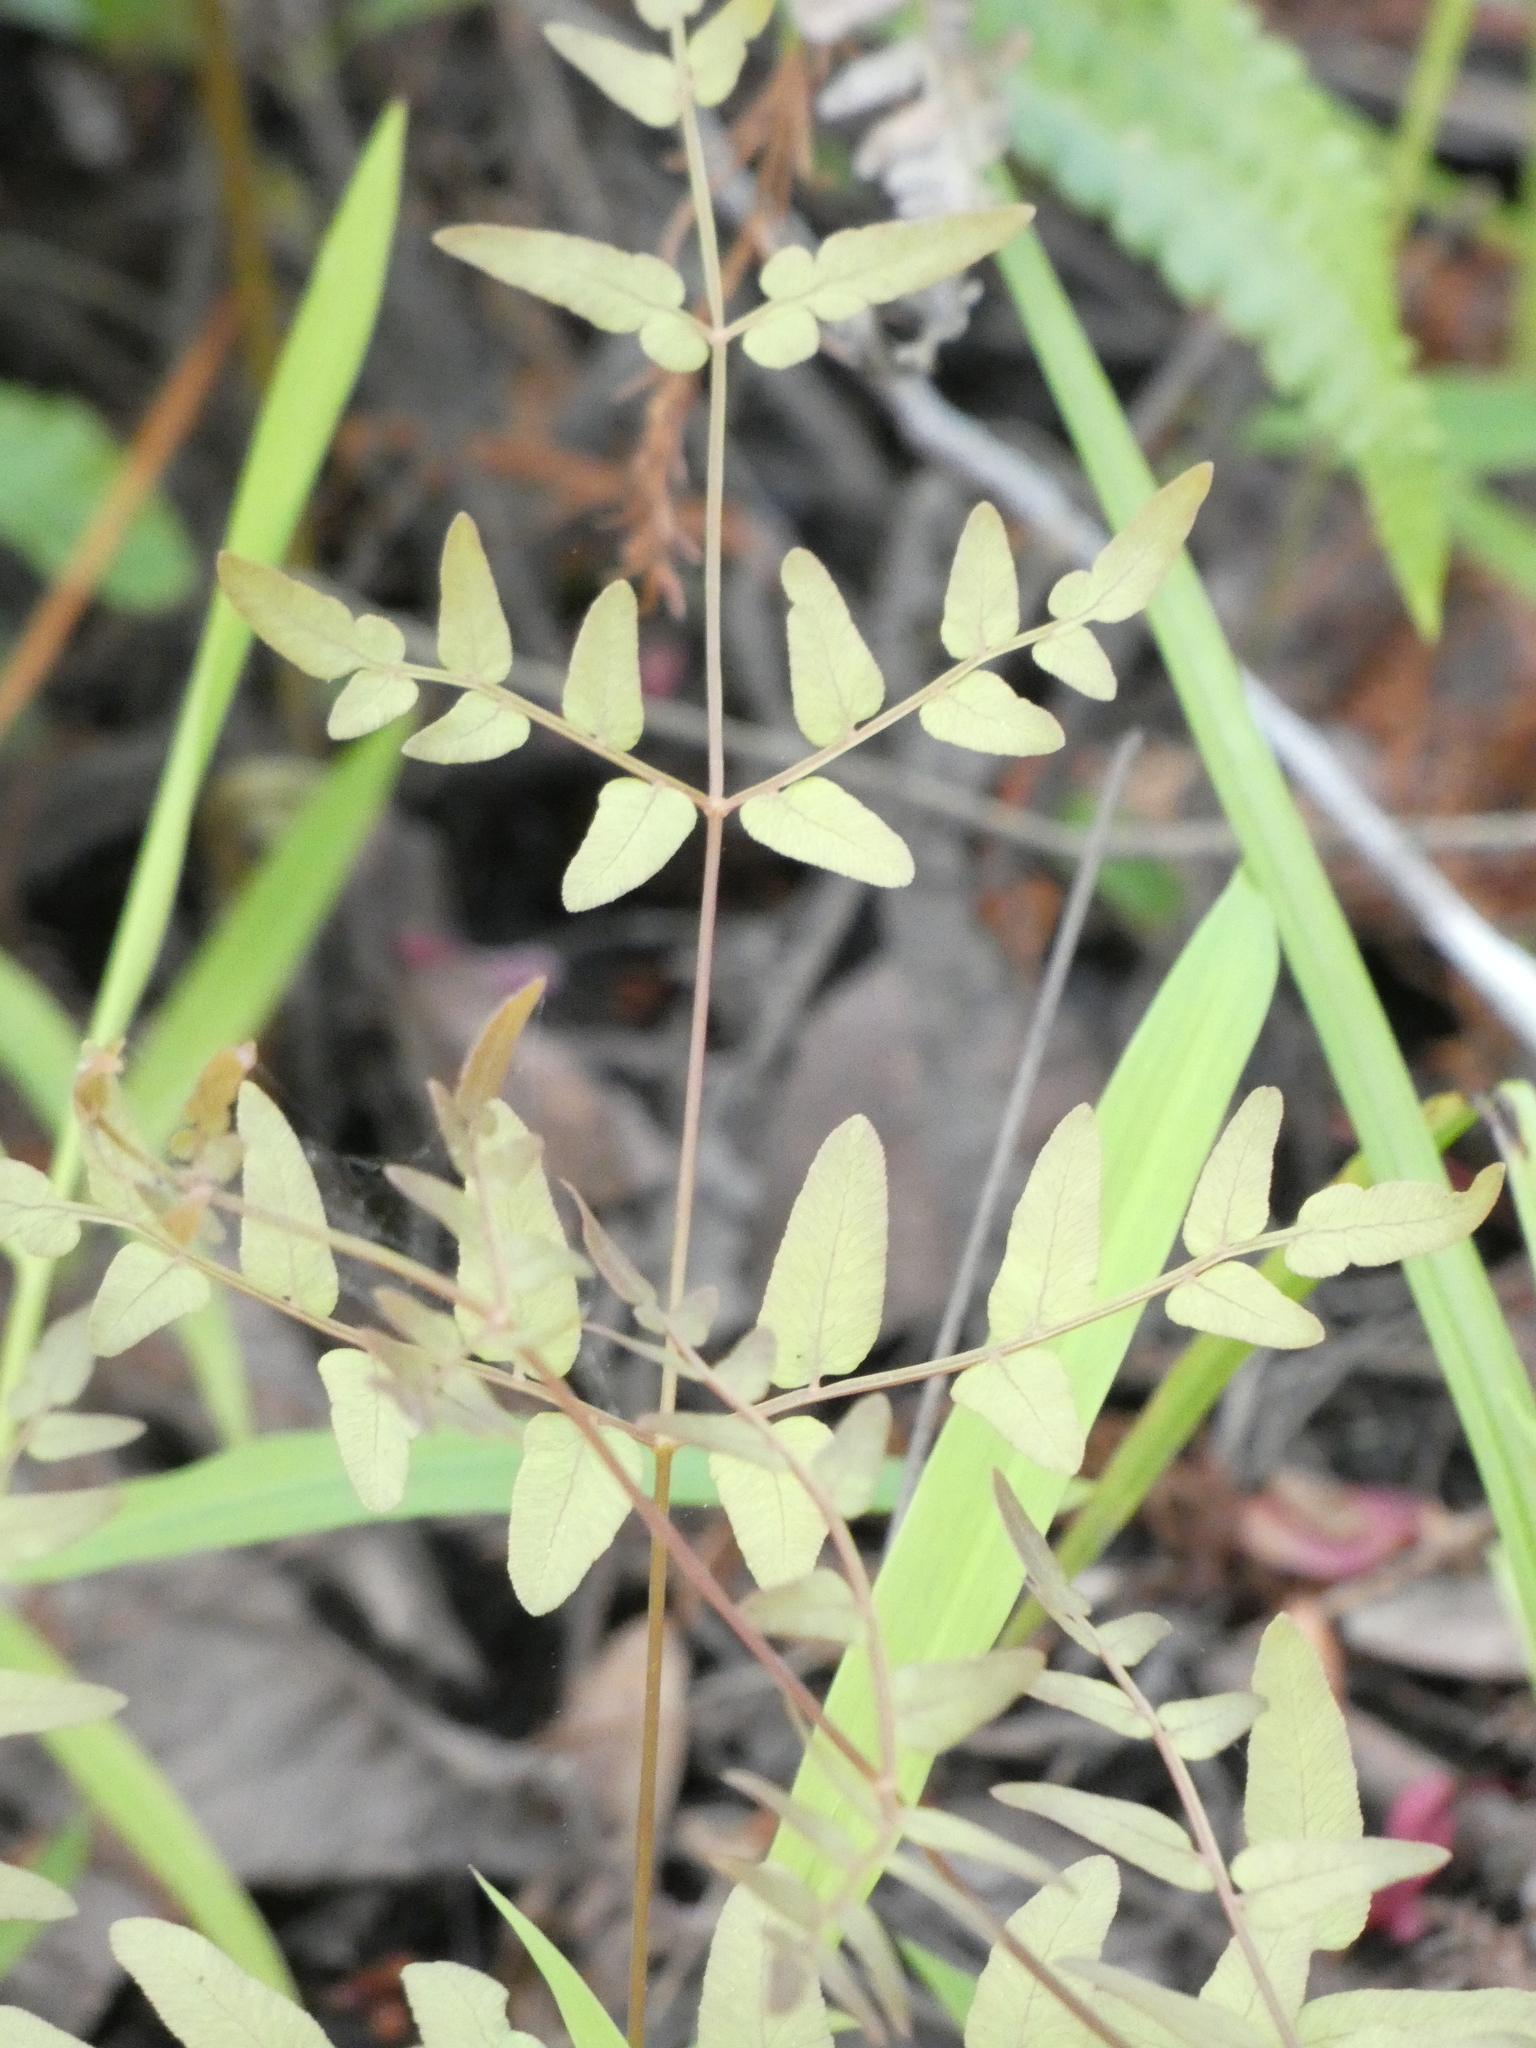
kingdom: Plantae
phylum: Tracheophyta
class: Polypodiopsida
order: Osmundales
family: Osmundaceae
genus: Osmunda
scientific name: Osmunda spectabilis
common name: American royal fern
